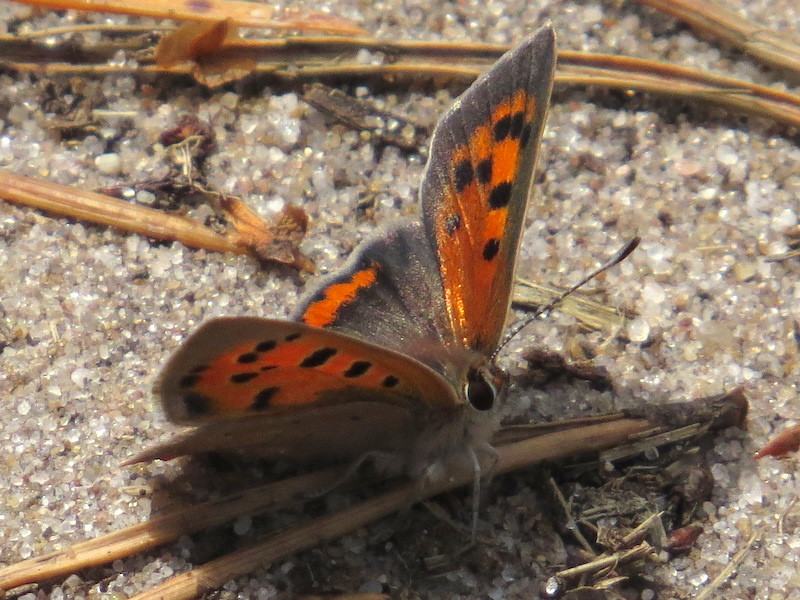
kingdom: Animalia
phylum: Arthropoda
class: Insecta
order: Lepidoptera
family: Lycaenidae
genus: Lycaena
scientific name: Lycaena phlaeas
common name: Small copper
